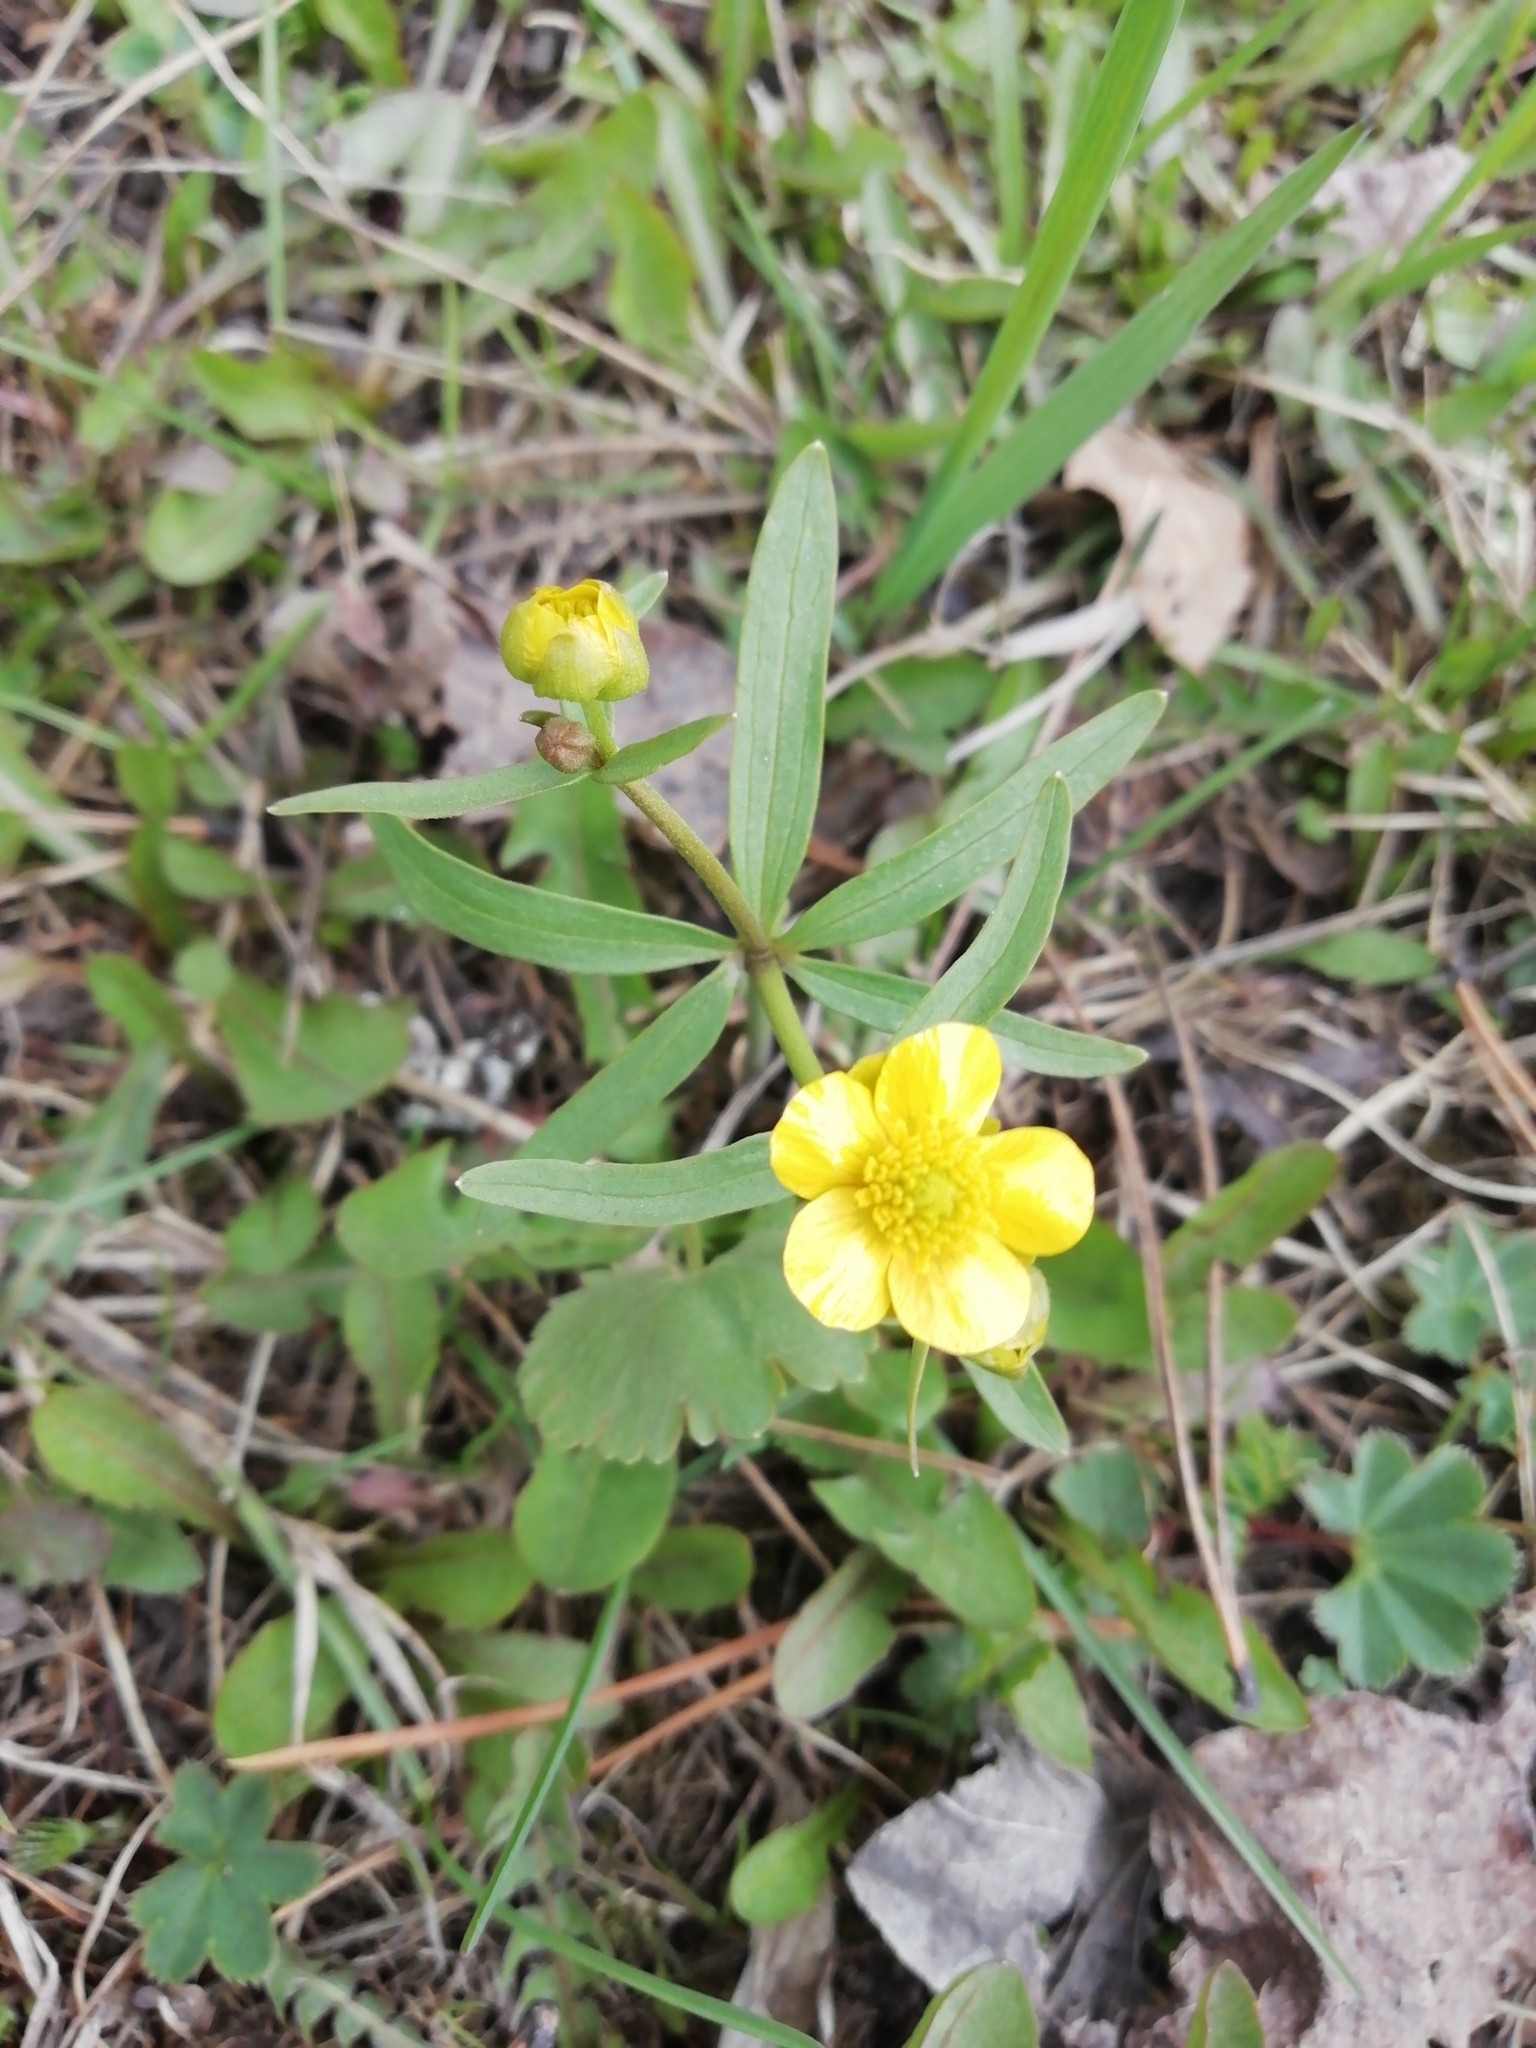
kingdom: Plantae
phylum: Tracheophyta
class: Magnoliopsida
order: Ranunculales
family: Ranunculaceae
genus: Ranunculus
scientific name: Ranunculus monophyllus
